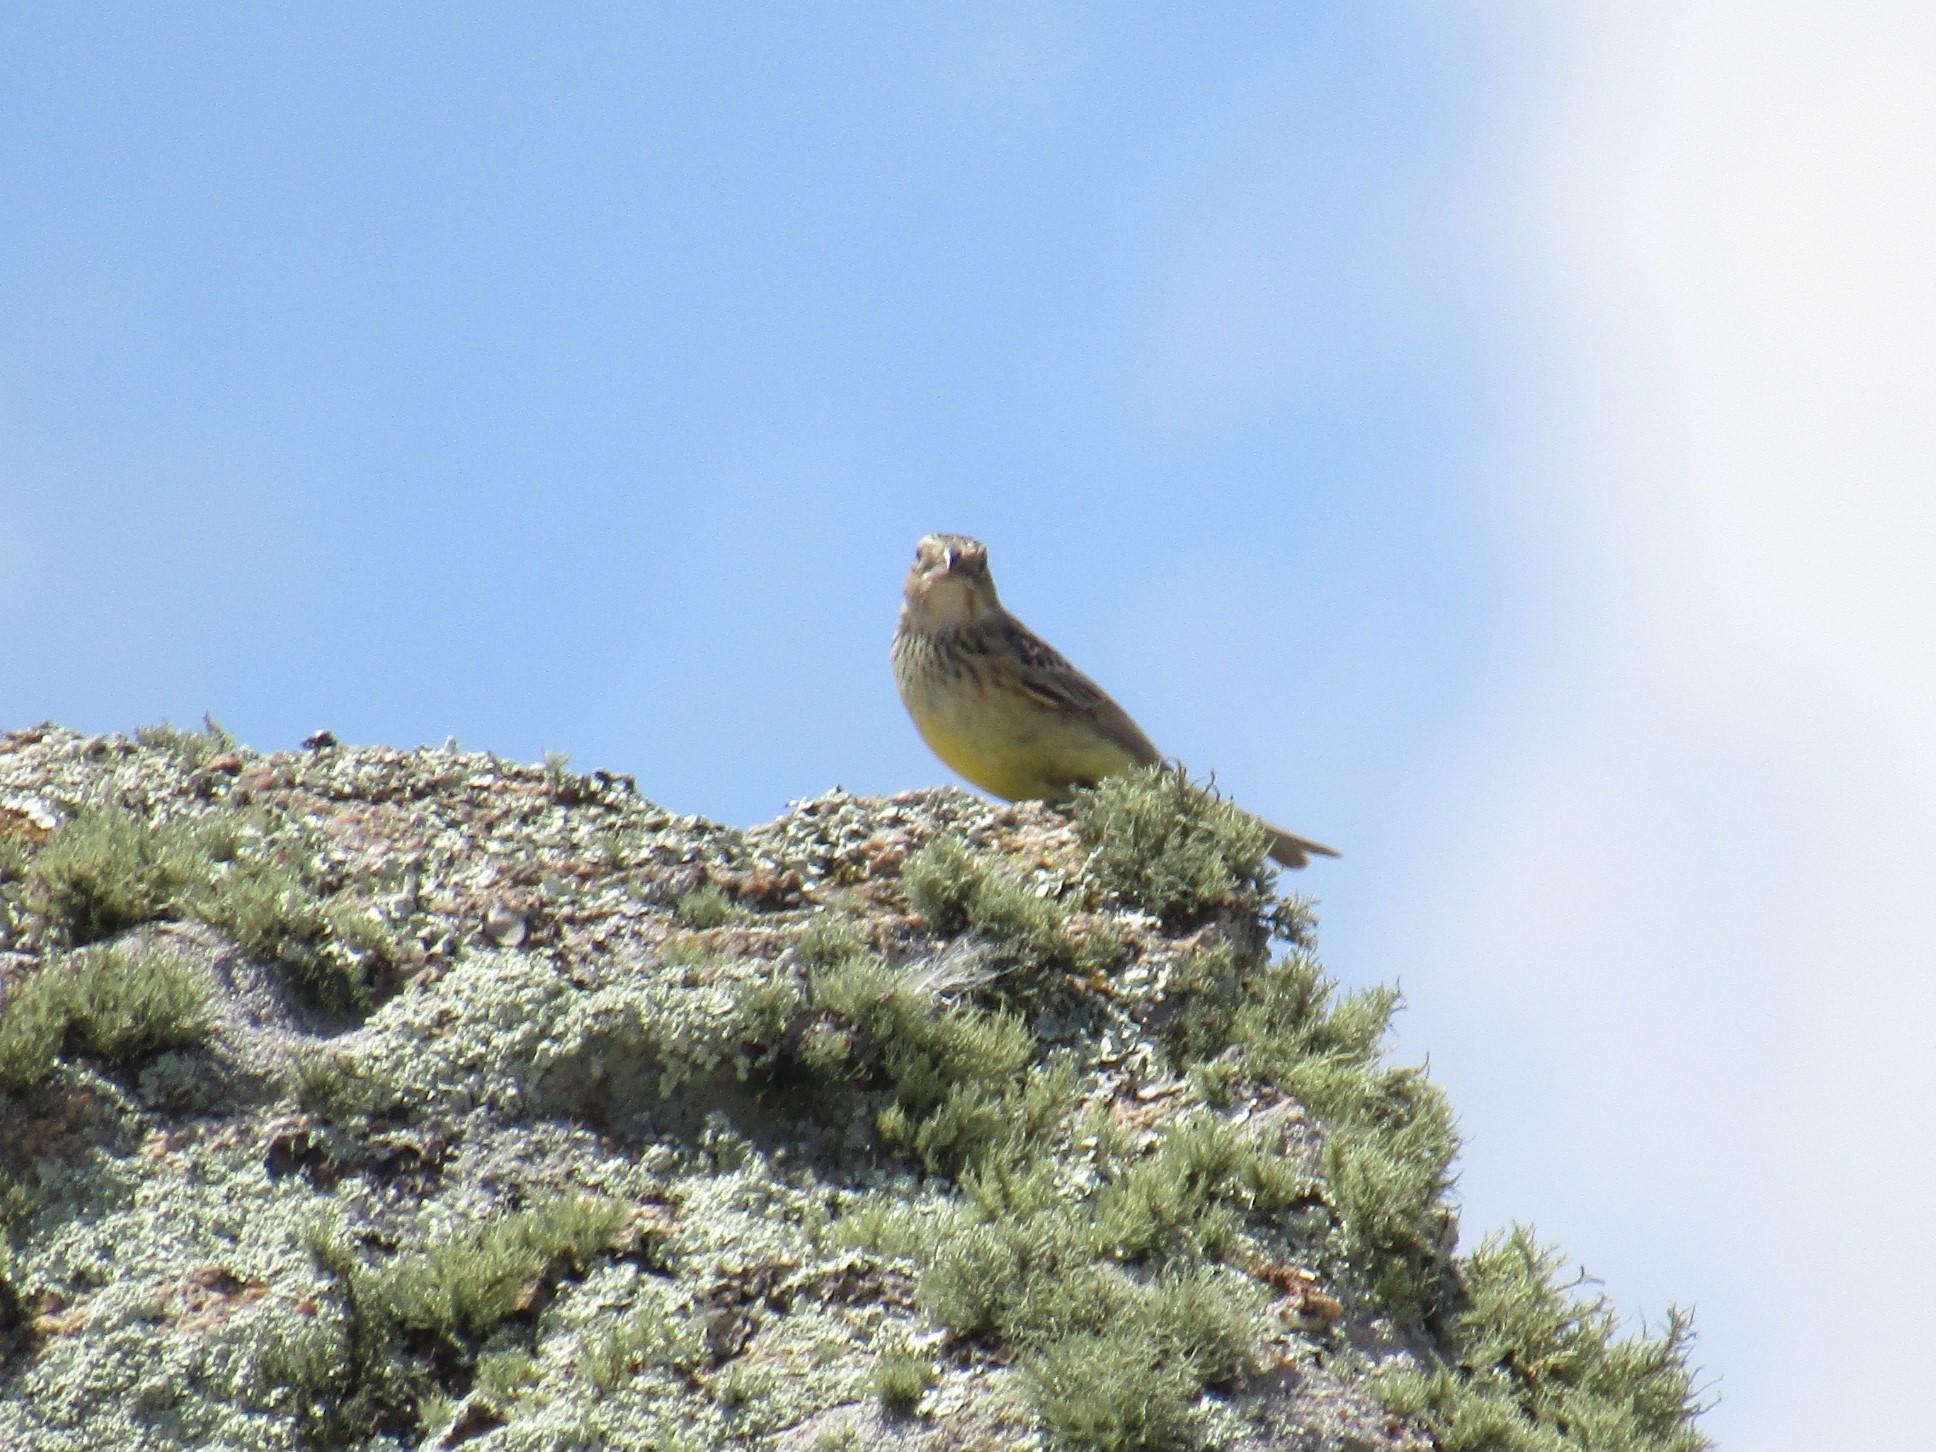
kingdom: Animalia
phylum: Chordata
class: Aves
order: Passeriformes
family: Thraupidae
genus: Sicalis
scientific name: Sicalis luteola
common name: Grassland yellow-finch
